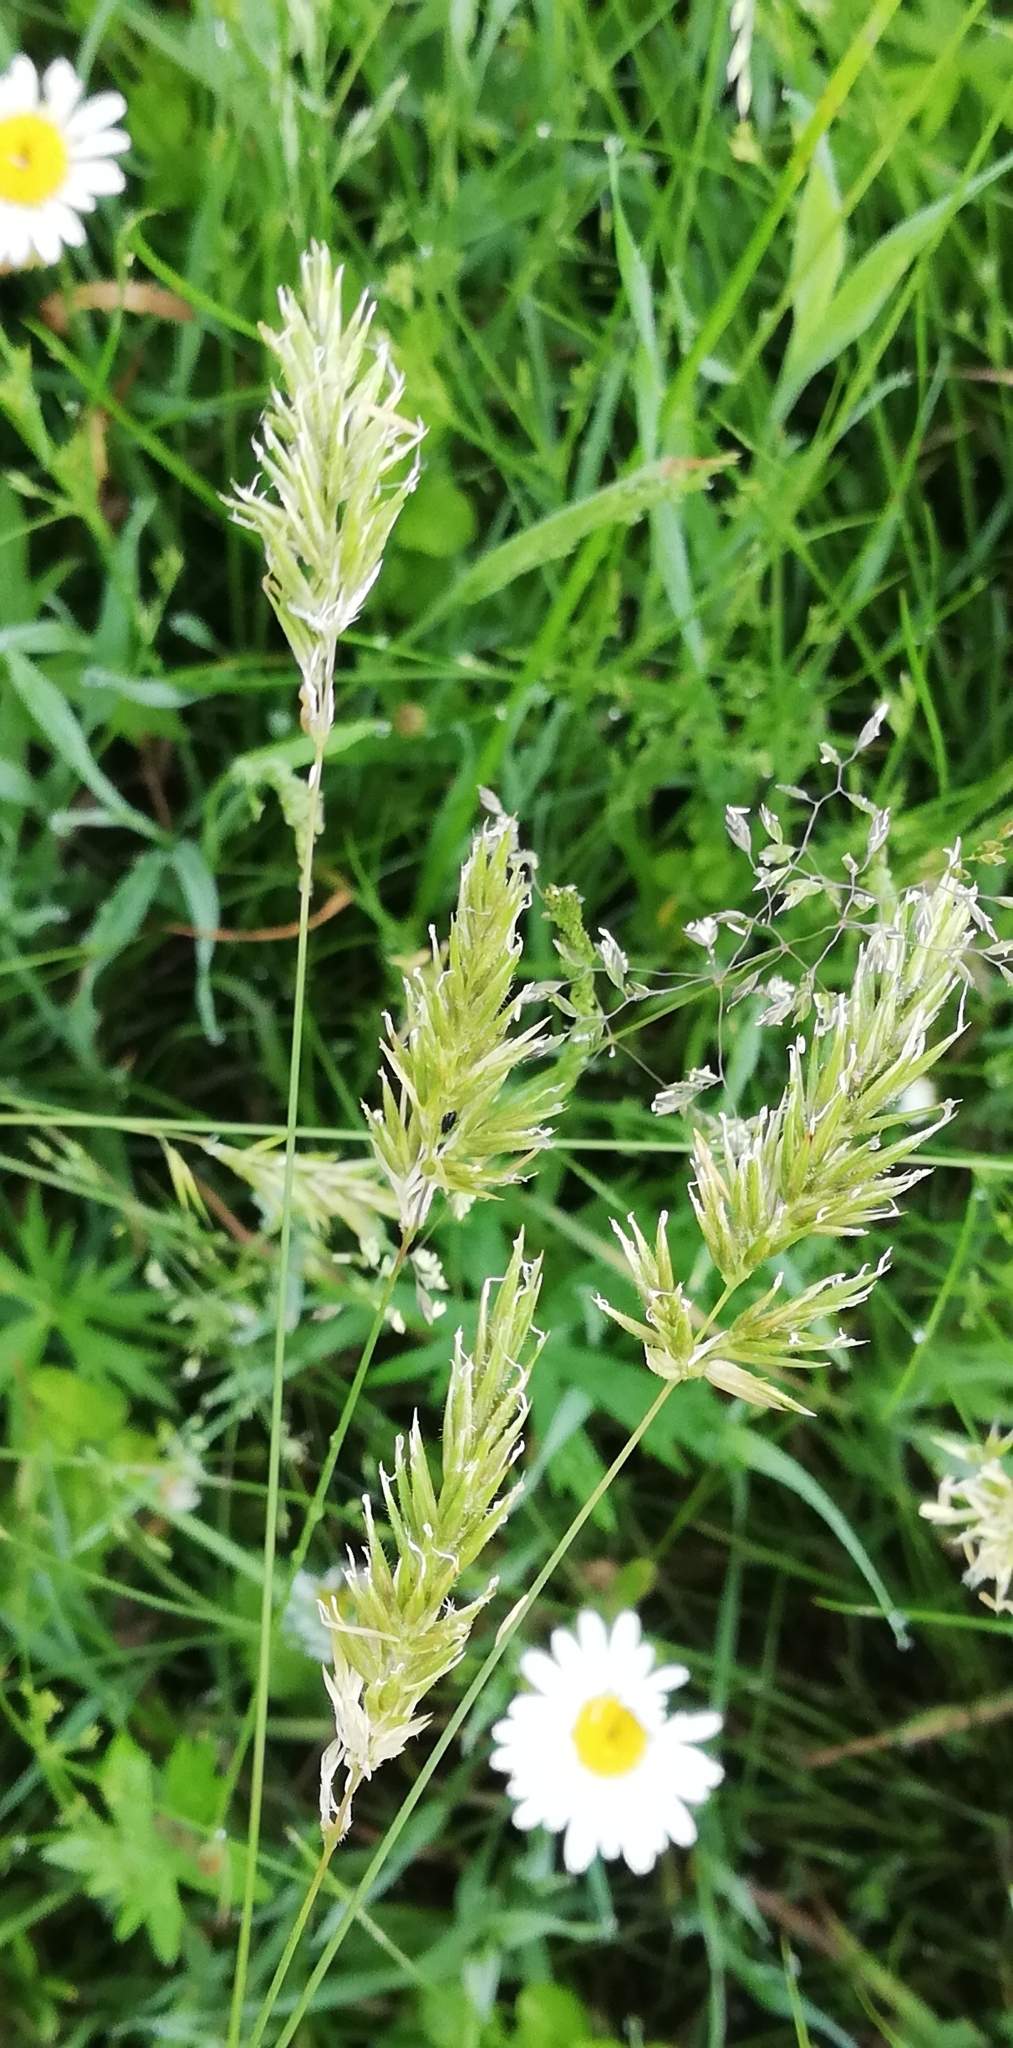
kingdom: Plantae
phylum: Tracheophyta
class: Liliopsida
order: Poales
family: Poaceae
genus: Anthoxanthum
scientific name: Anthoxanthum odoratum
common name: Sweet vernalgrass
